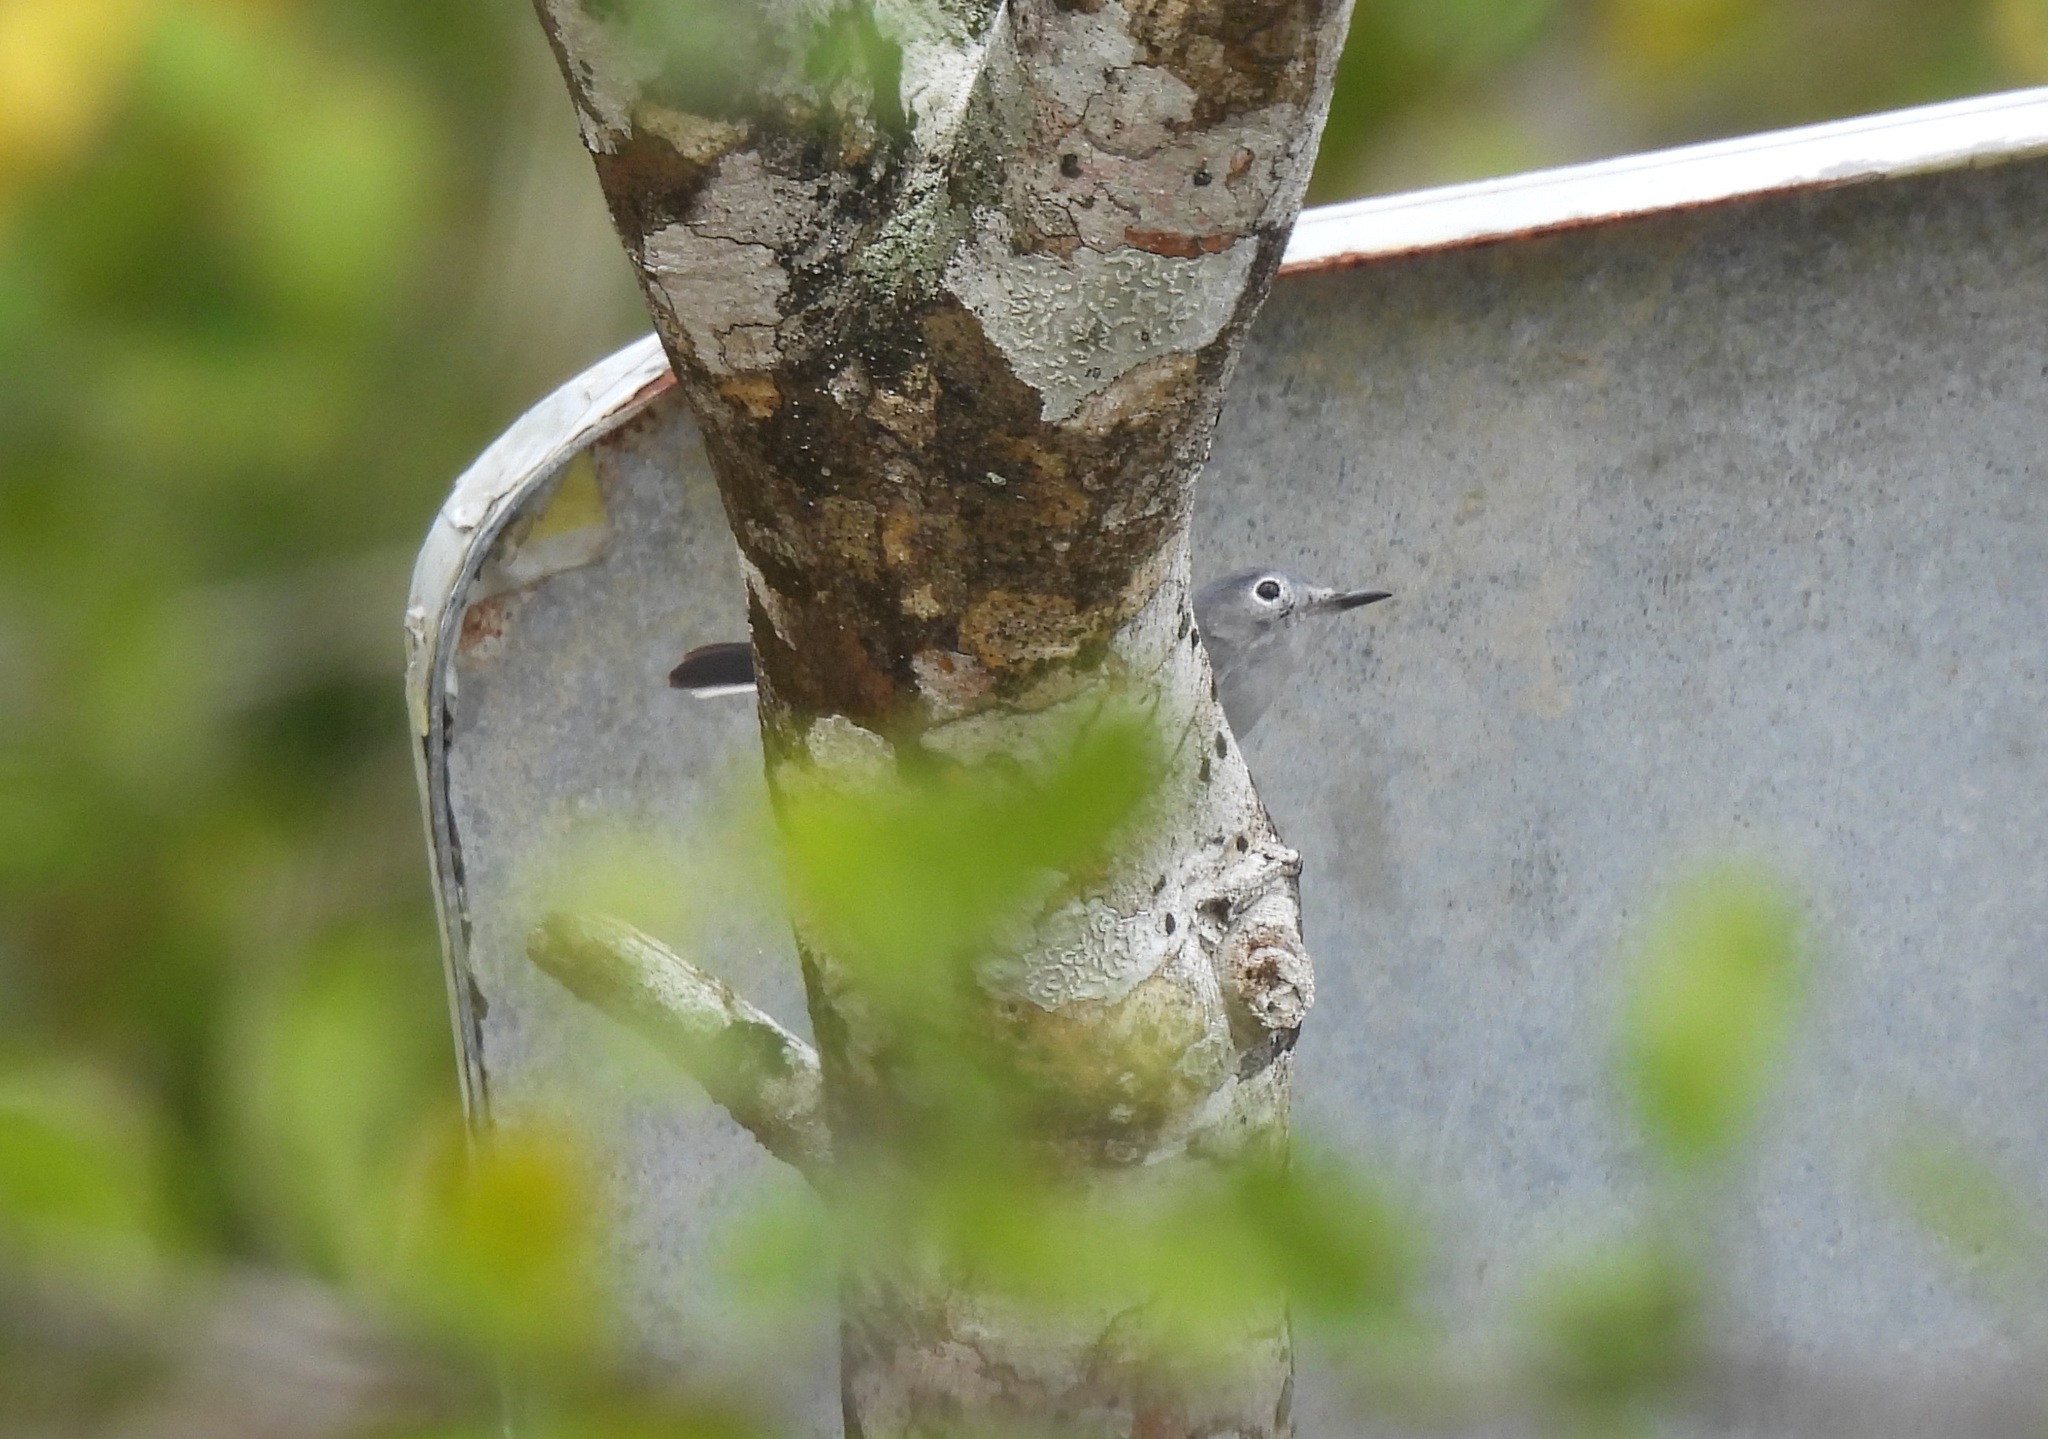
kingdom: Animalia
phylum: Chordata
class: Aves
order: Passeriformes
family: Polioptilidae
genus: Polioptila
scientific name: Polioptila caerulea
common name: Blue-gray gnatcatcher
